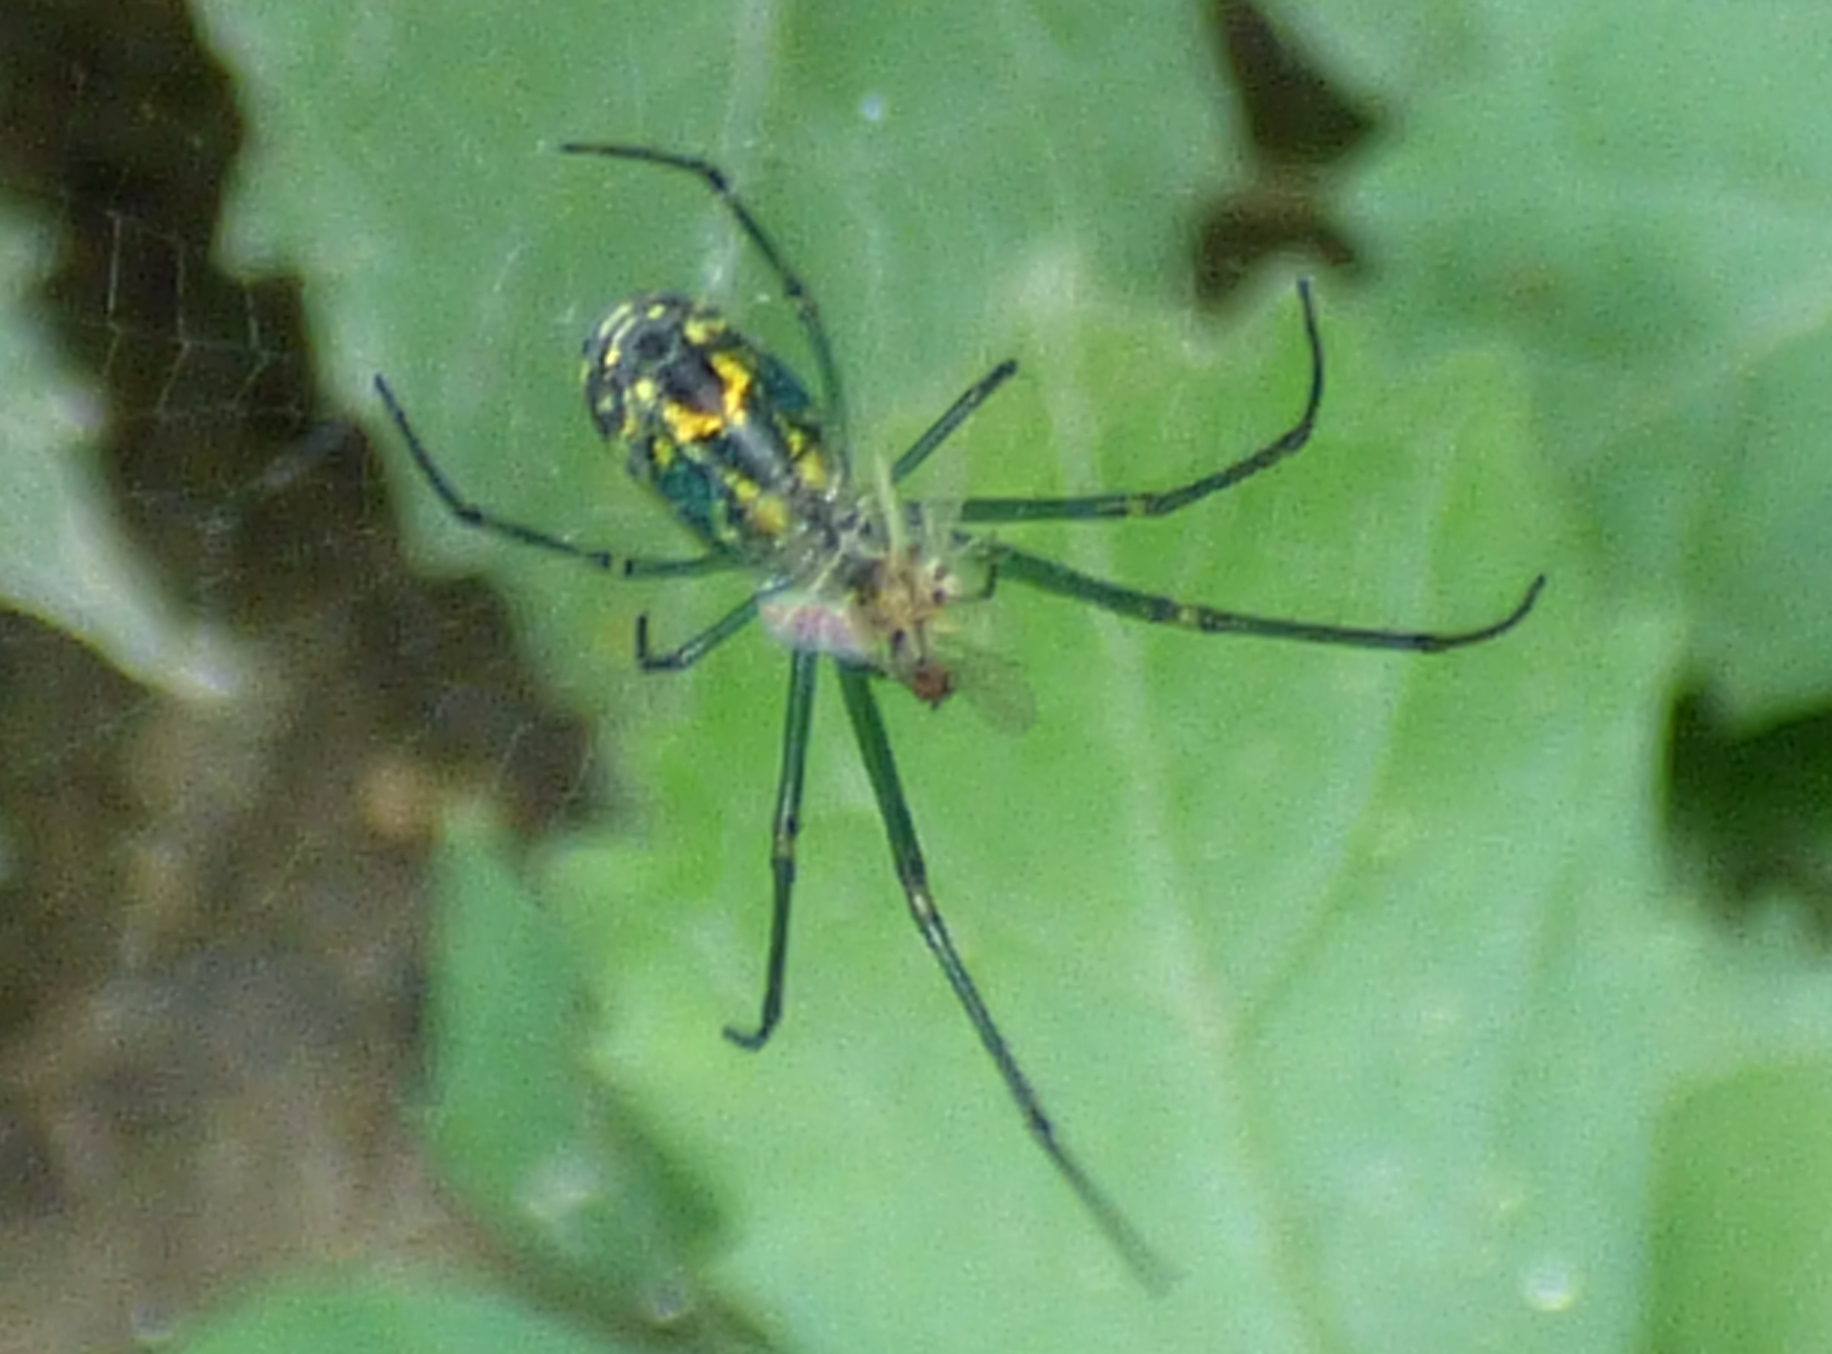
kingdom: Animalia
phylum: Arthropoda
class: Arachnida
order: Araneae
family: Tetragnathidae
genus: Leucauge
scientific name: Leucauge venusta
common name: Longjawed orb weavers
